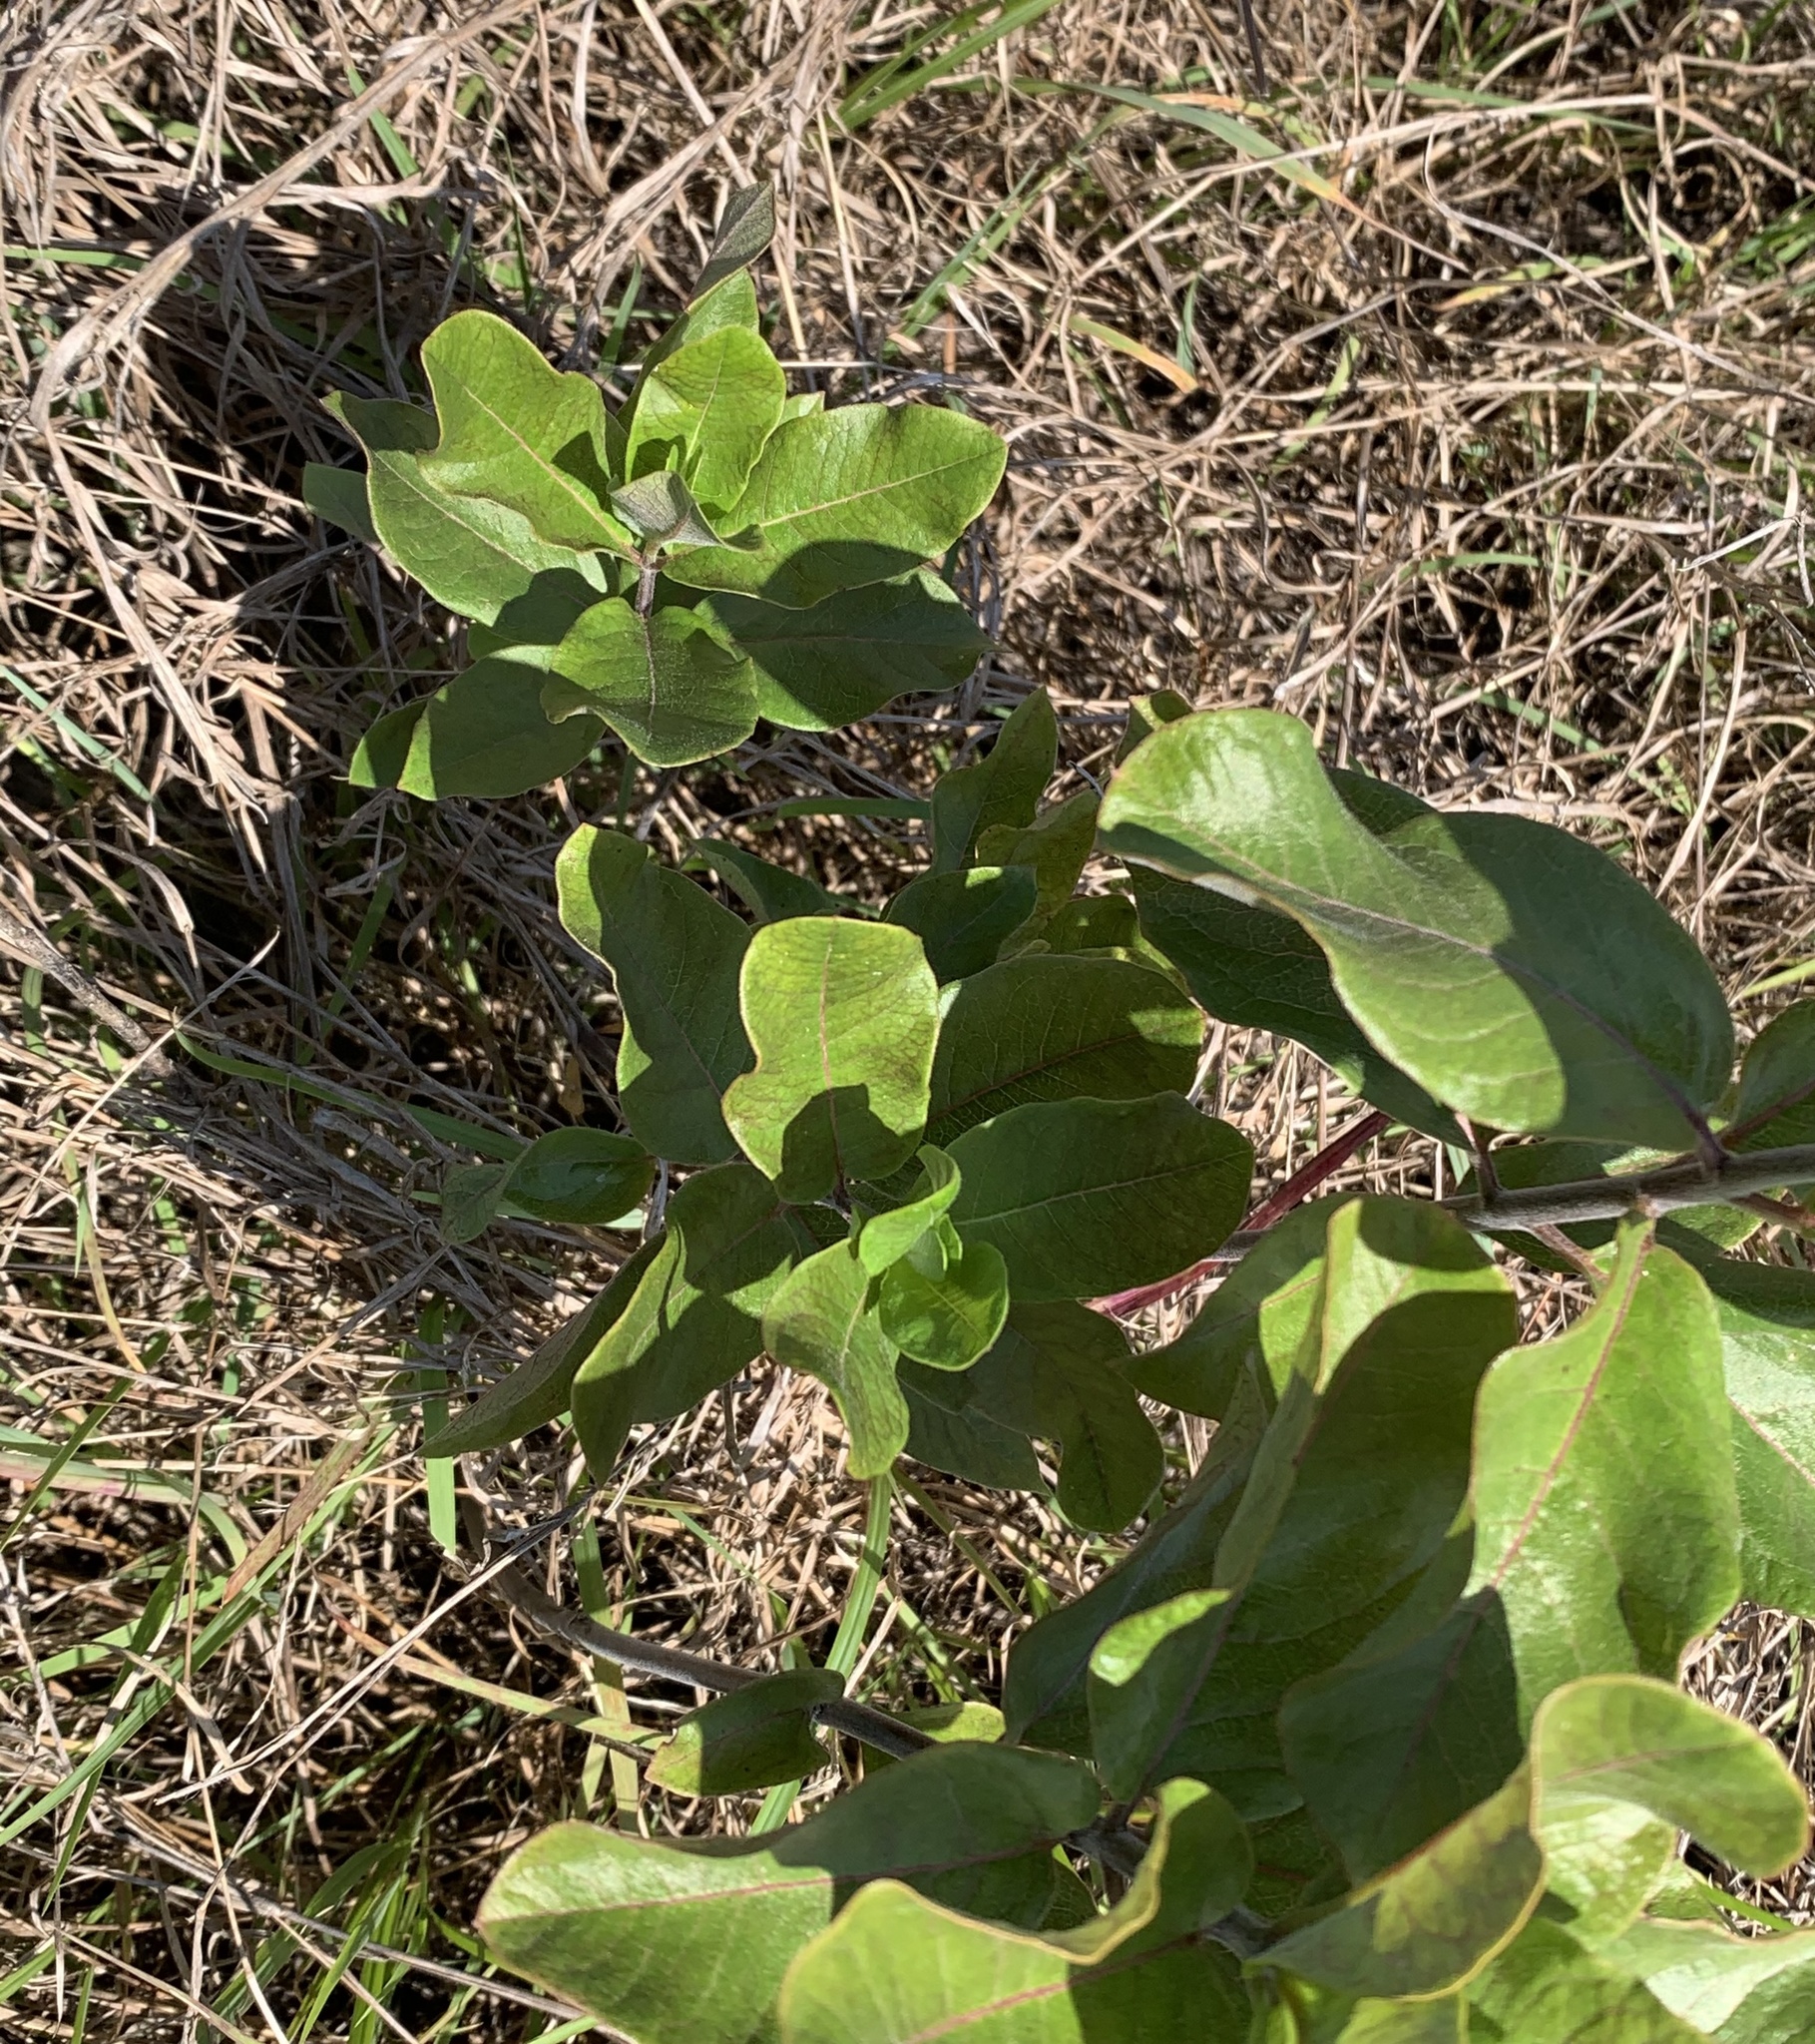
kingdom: Plantae
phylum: Tracheophyta
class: Magnoliopsida
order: Gentianales
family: Apocynaceae
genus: Asclepias
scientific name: Asclepias tomentosa
